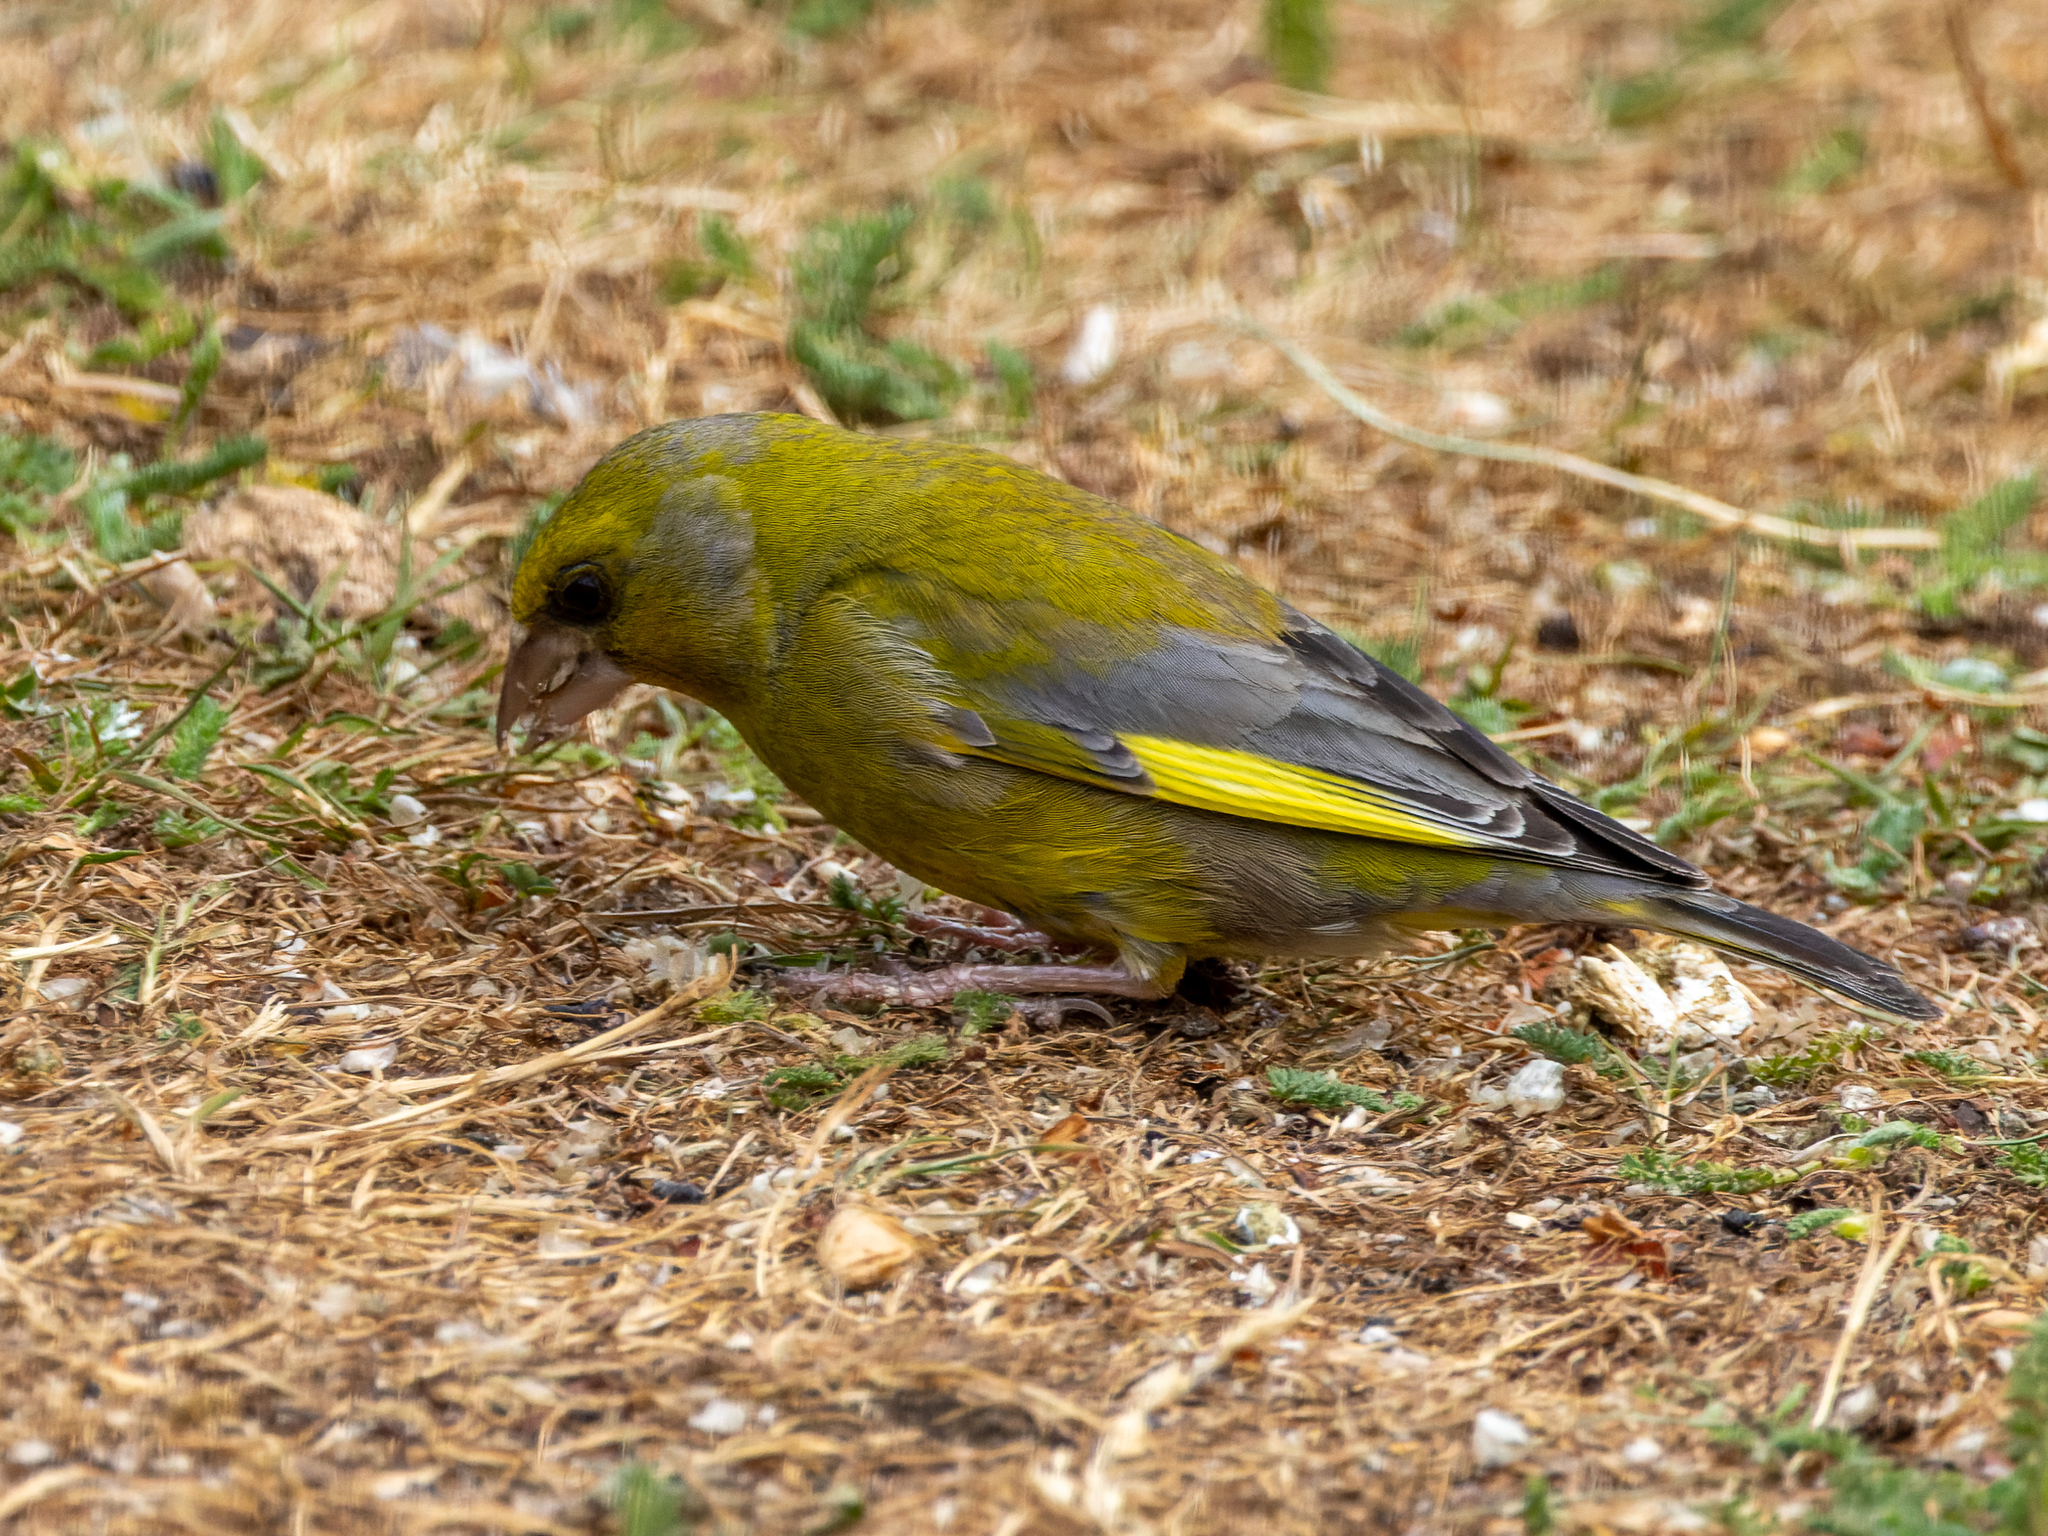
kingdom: Plantae
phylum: Tracheophyta
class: Liliopsida
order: Poales
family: Poaceae
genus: Chloris
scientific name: Chloris chloris
